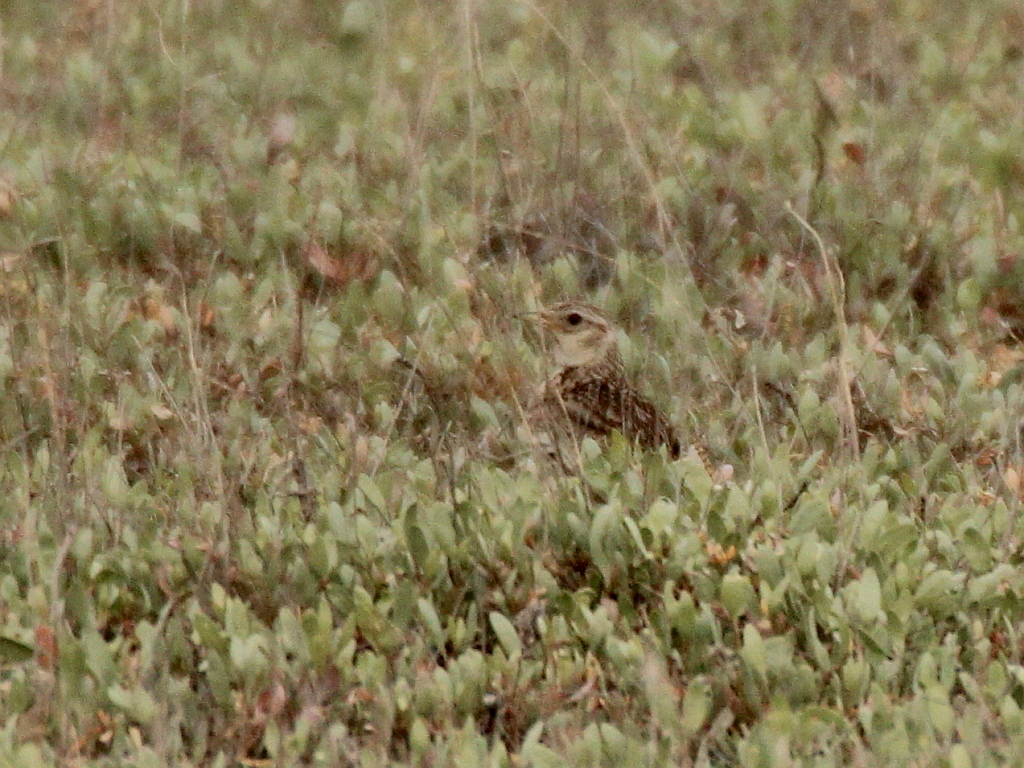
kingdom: Animalia
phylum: Chordata
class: Aves
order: Passeriformes
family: Alaudidae
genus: Alauda
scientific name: Alauda arvensis
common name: Eurasian skylark
